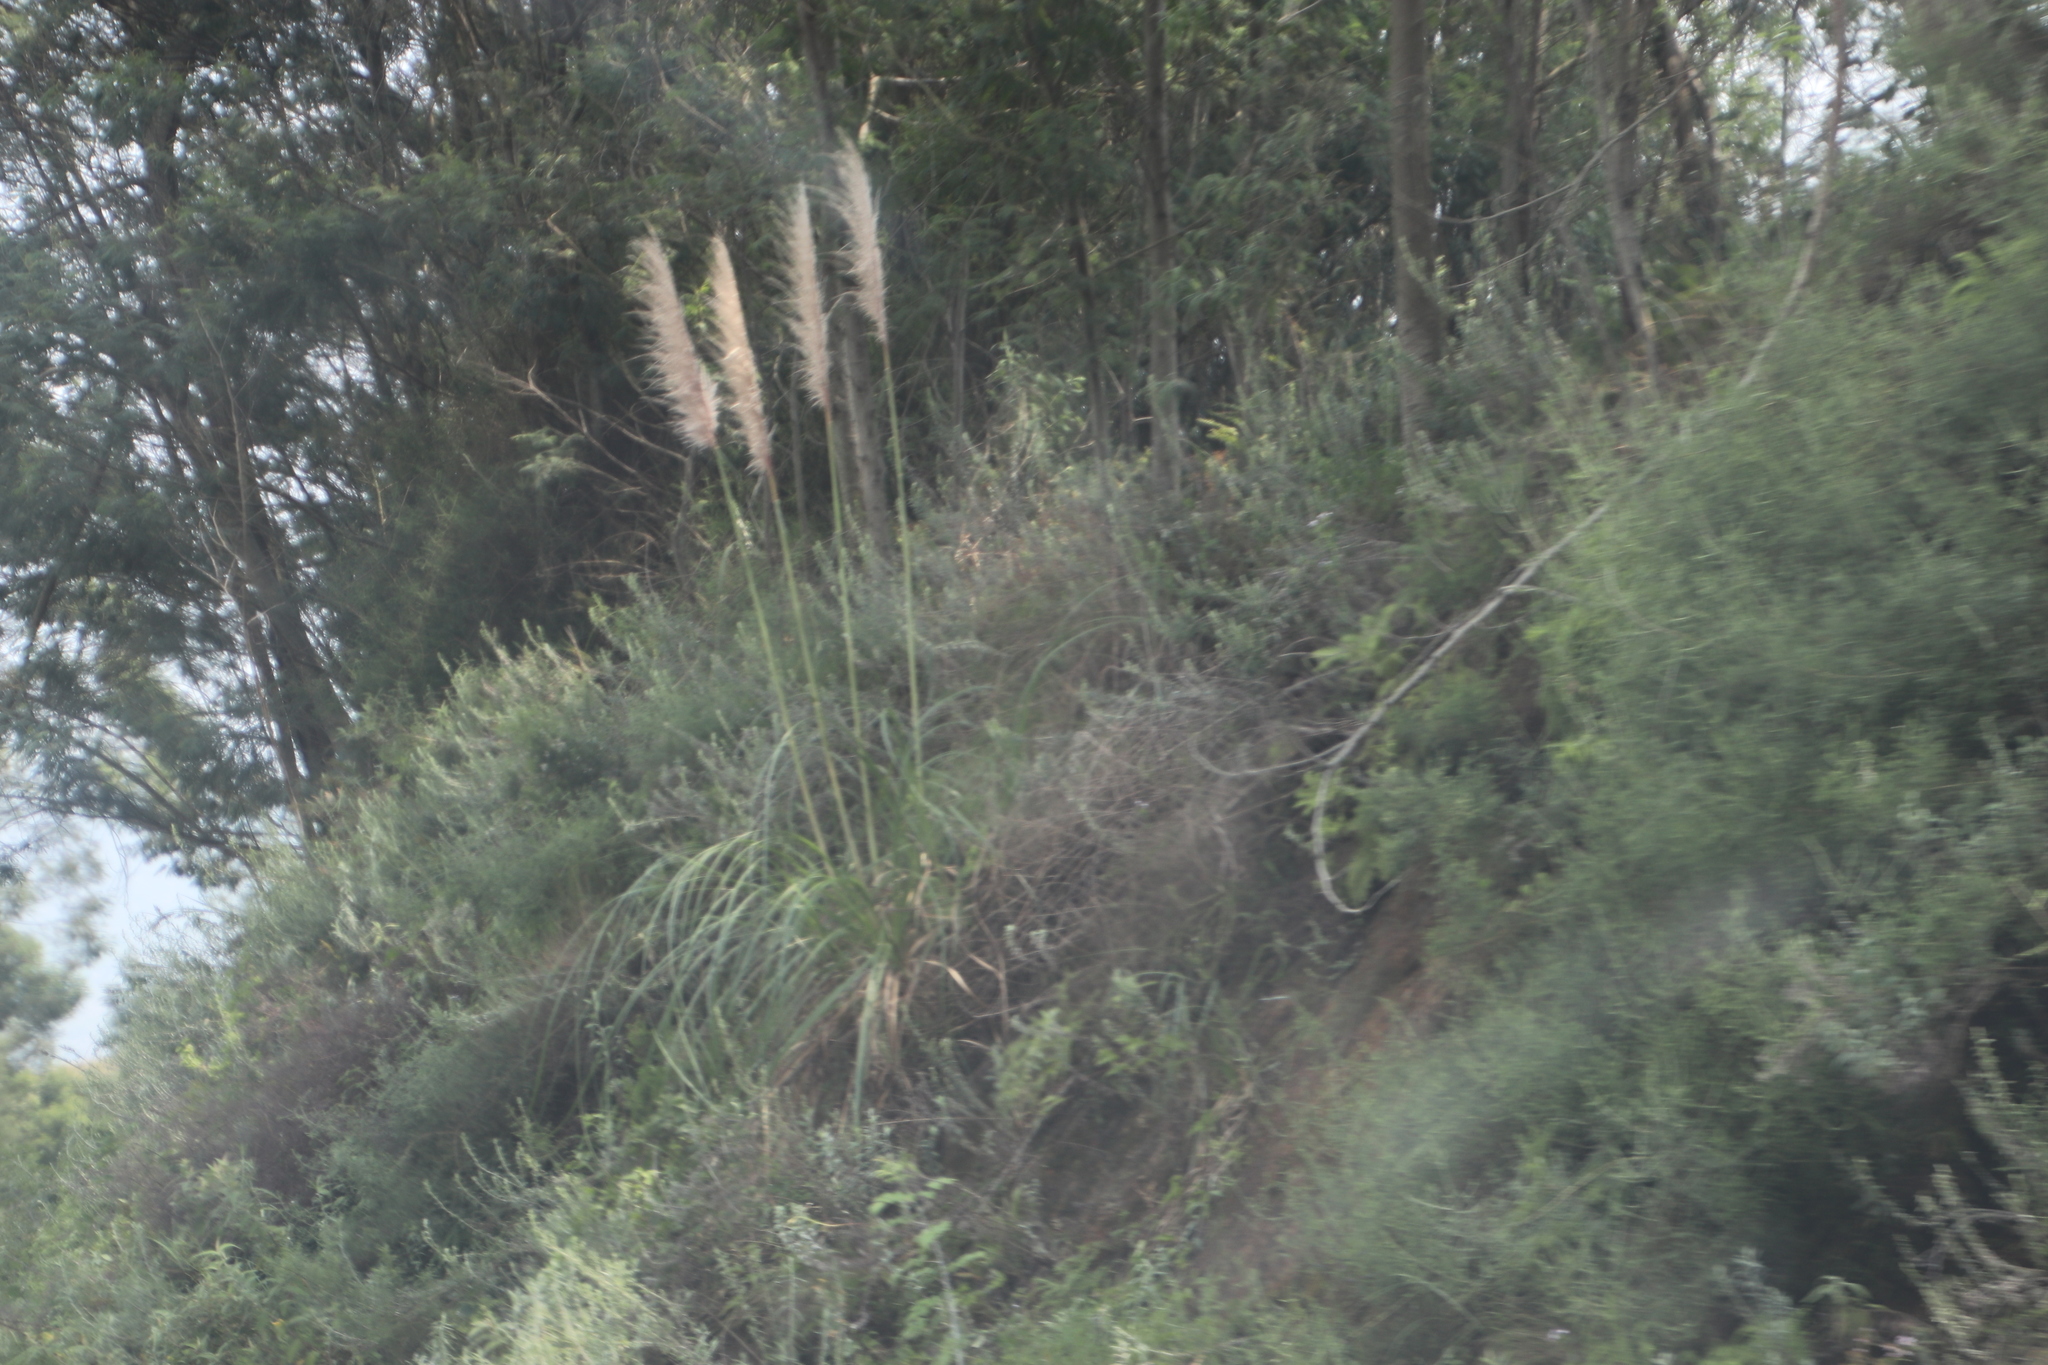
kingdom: Plantae
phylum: Tracheophyta
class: Liliopsida
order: Poales
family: Poaceae
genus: Cortaderia
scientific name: Cortaderia selloana
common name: Uruguayan pampas grass
